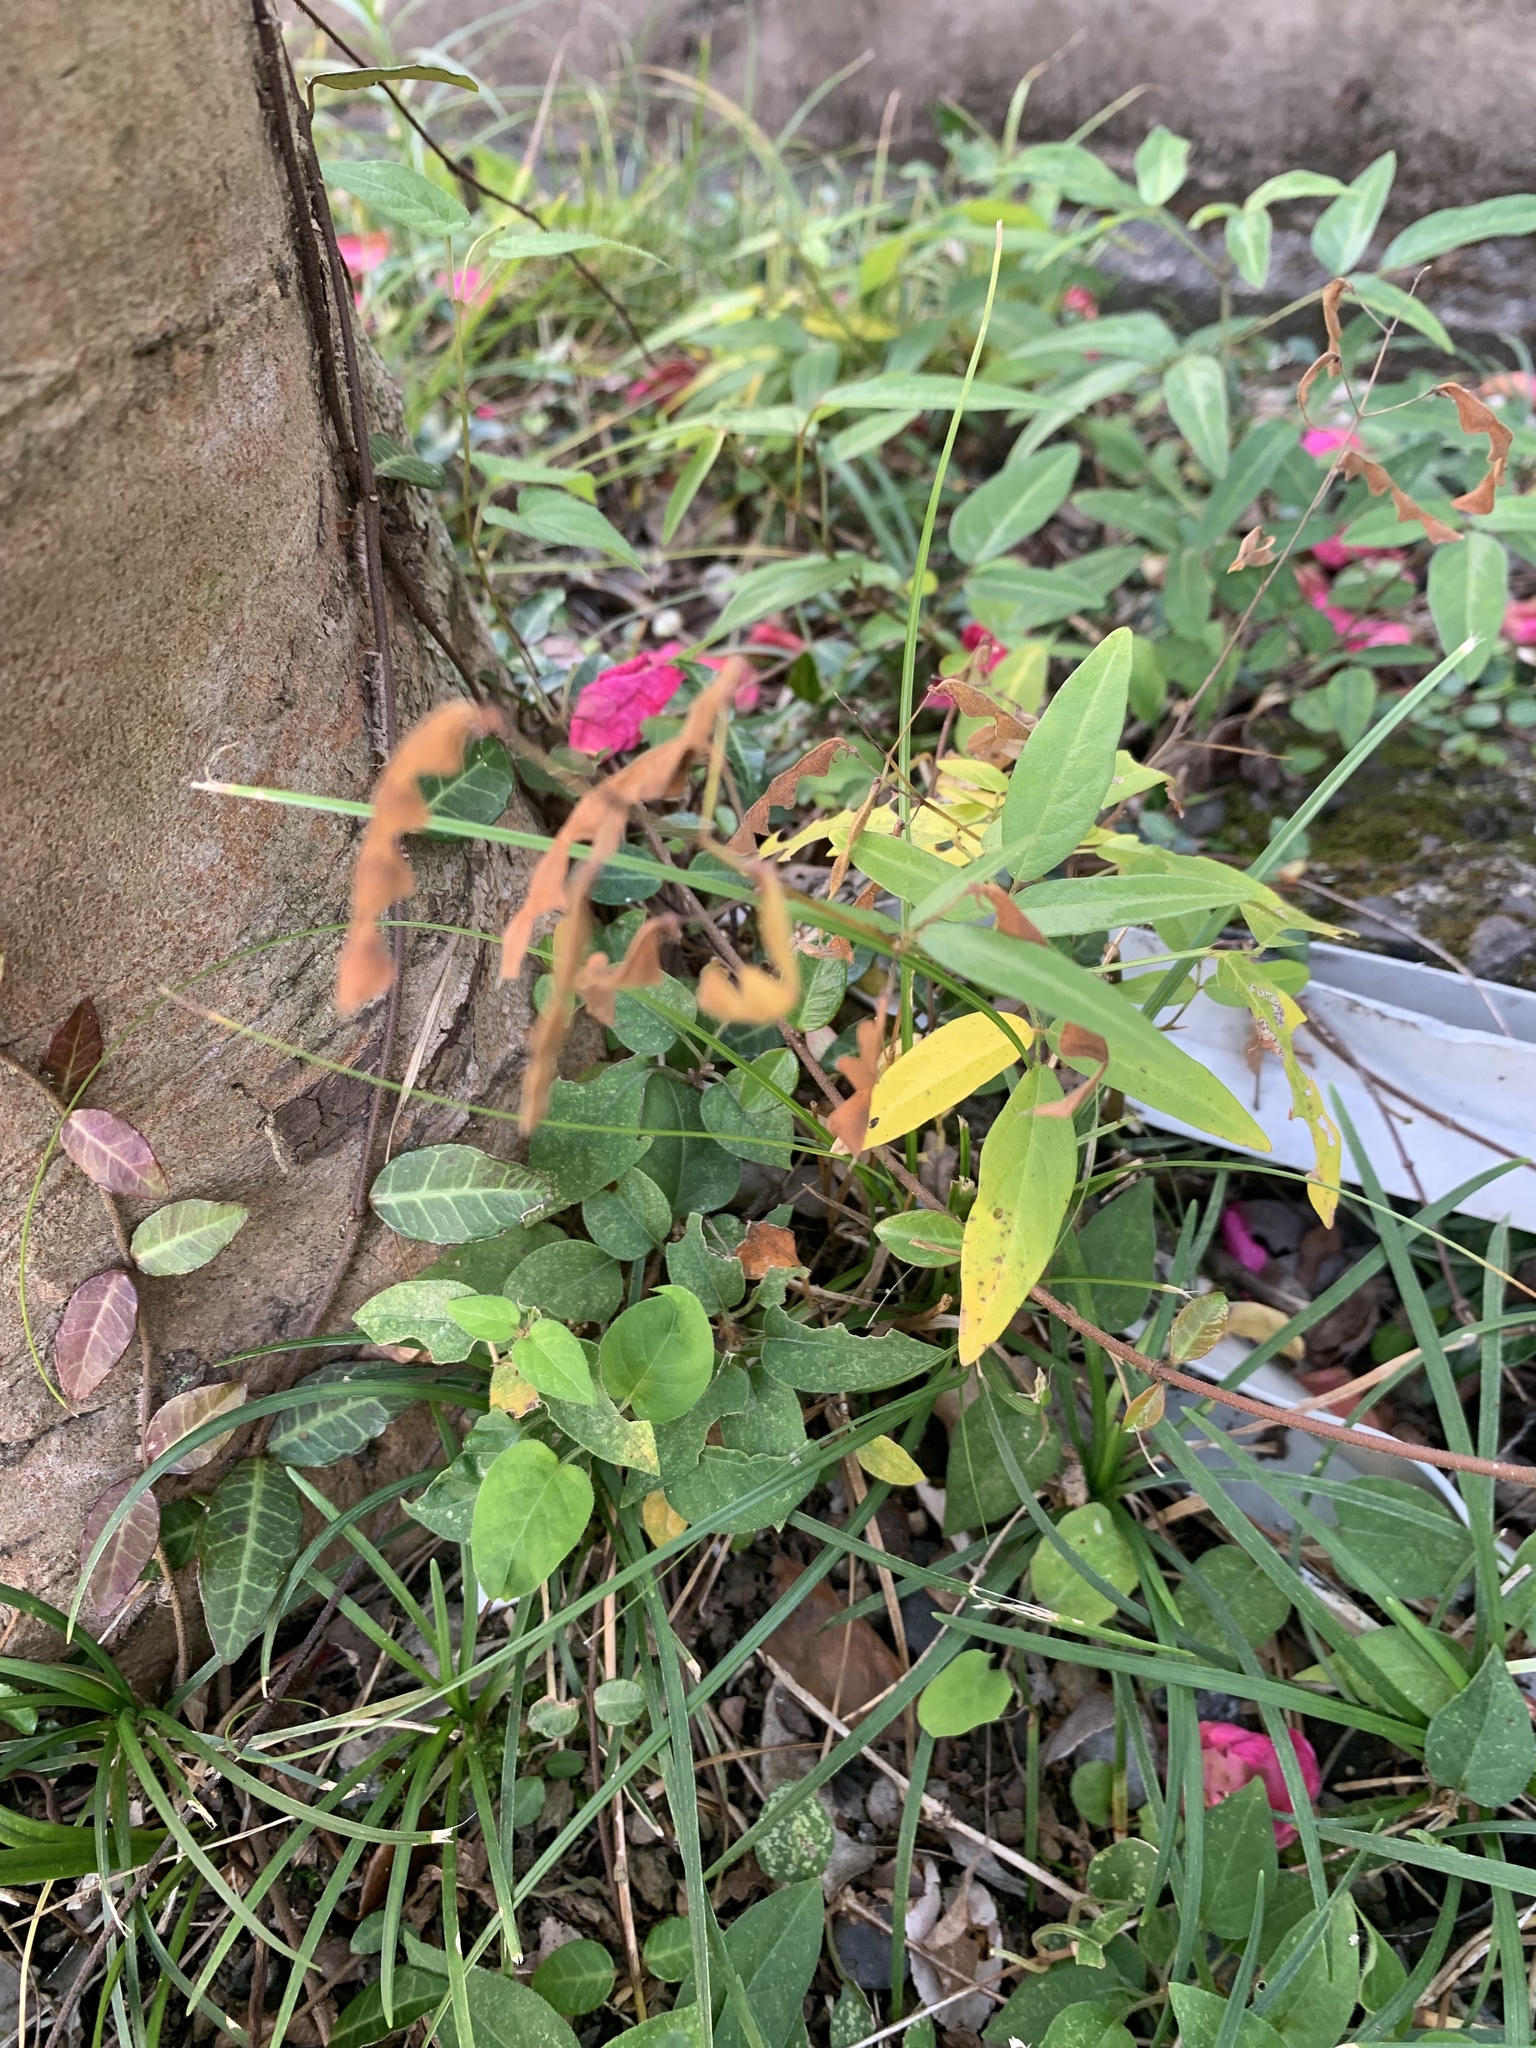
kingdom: Plantae
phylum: Tracheophyta
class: Magnoliopsida
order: Fabales
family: Fabaceae
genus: Desmodium
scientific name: Desmodium paniculatum
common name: Panicled tick-clover
